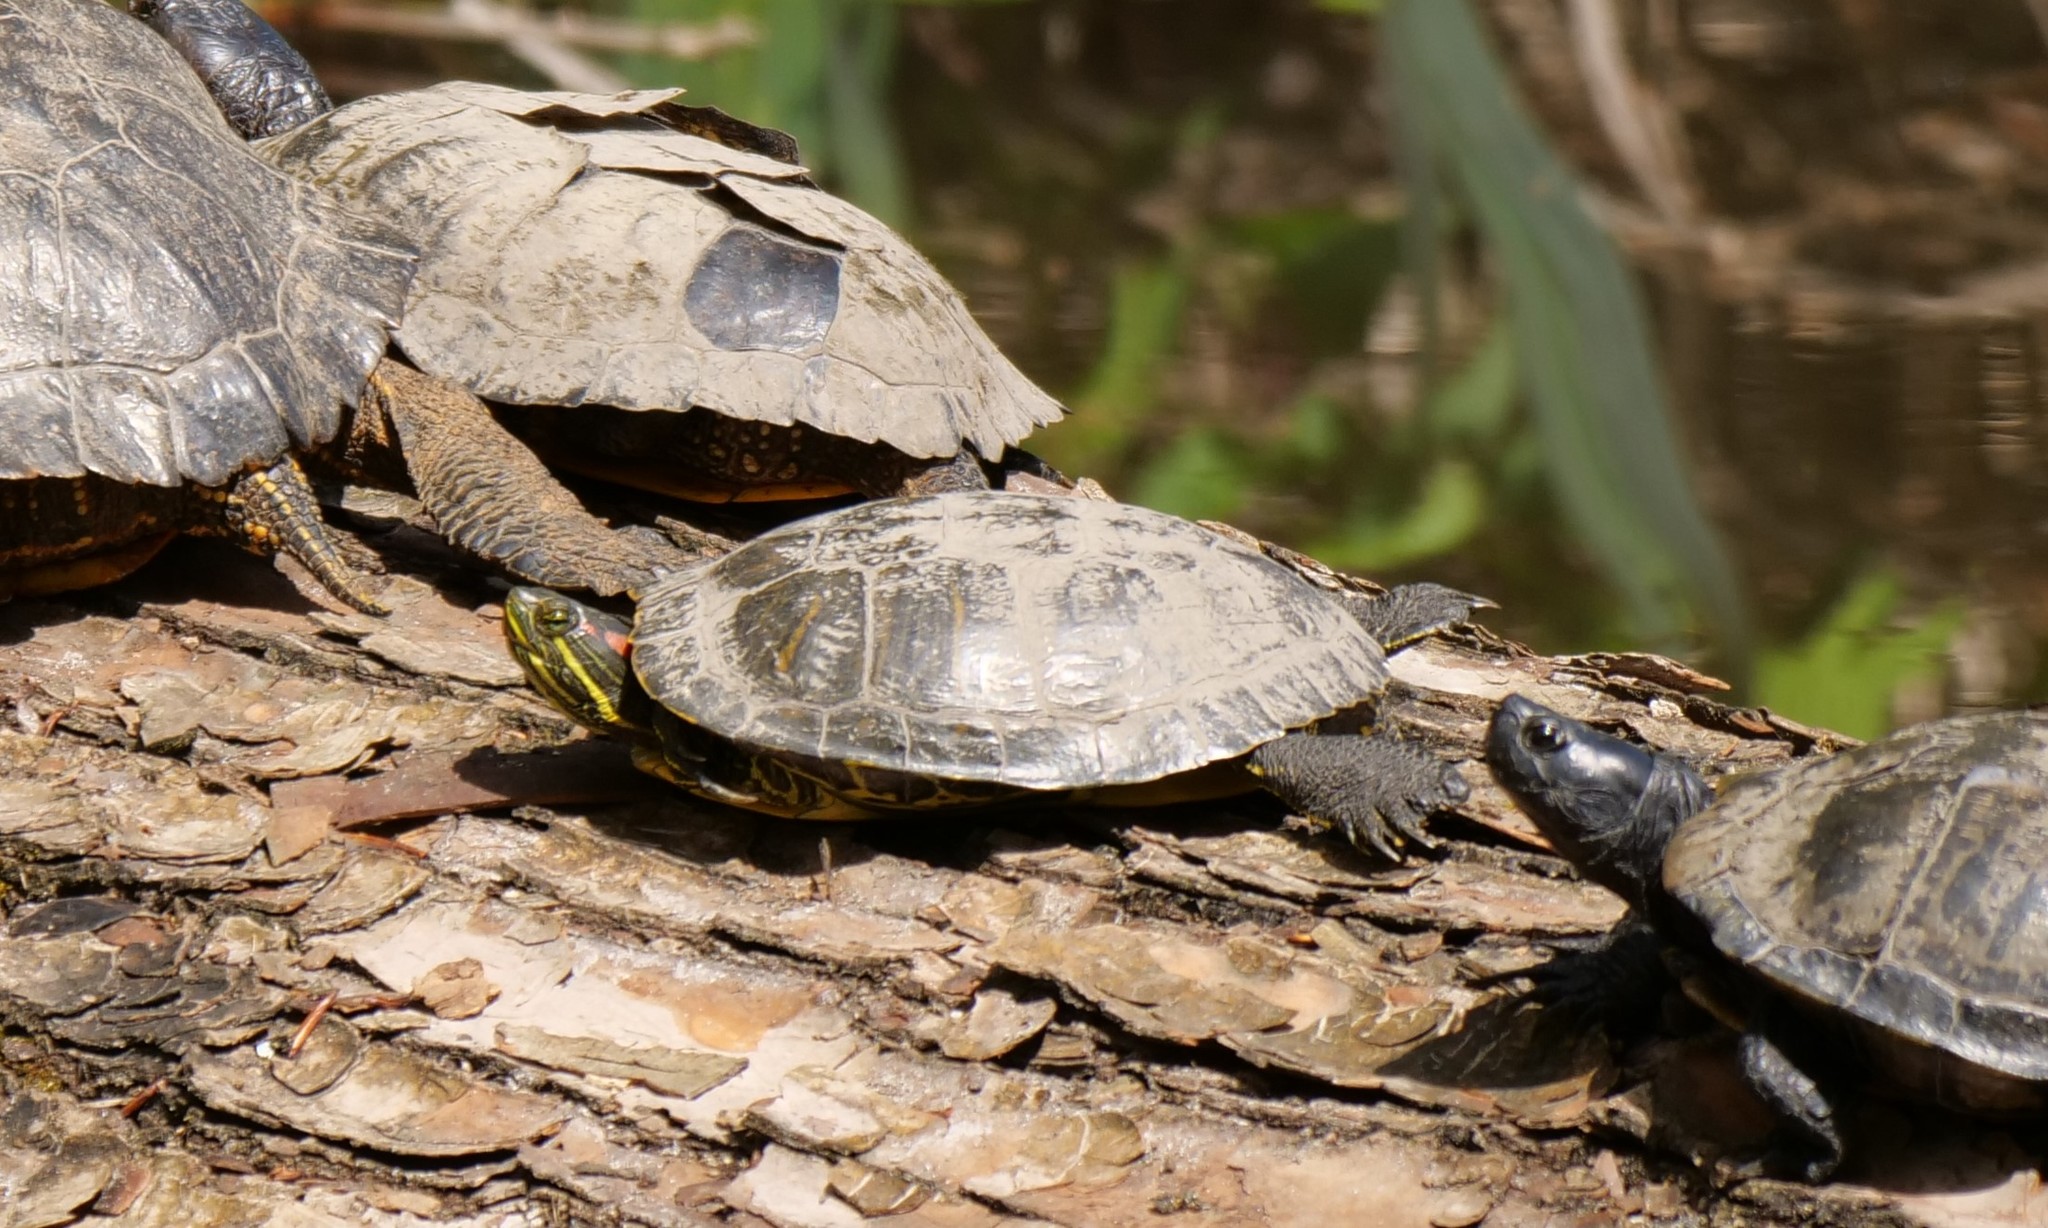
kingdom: Animalia
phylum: Chordata
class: Testudines
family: Emydidae
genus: Trachemys
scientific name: Trachemys scripta
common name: Slider
